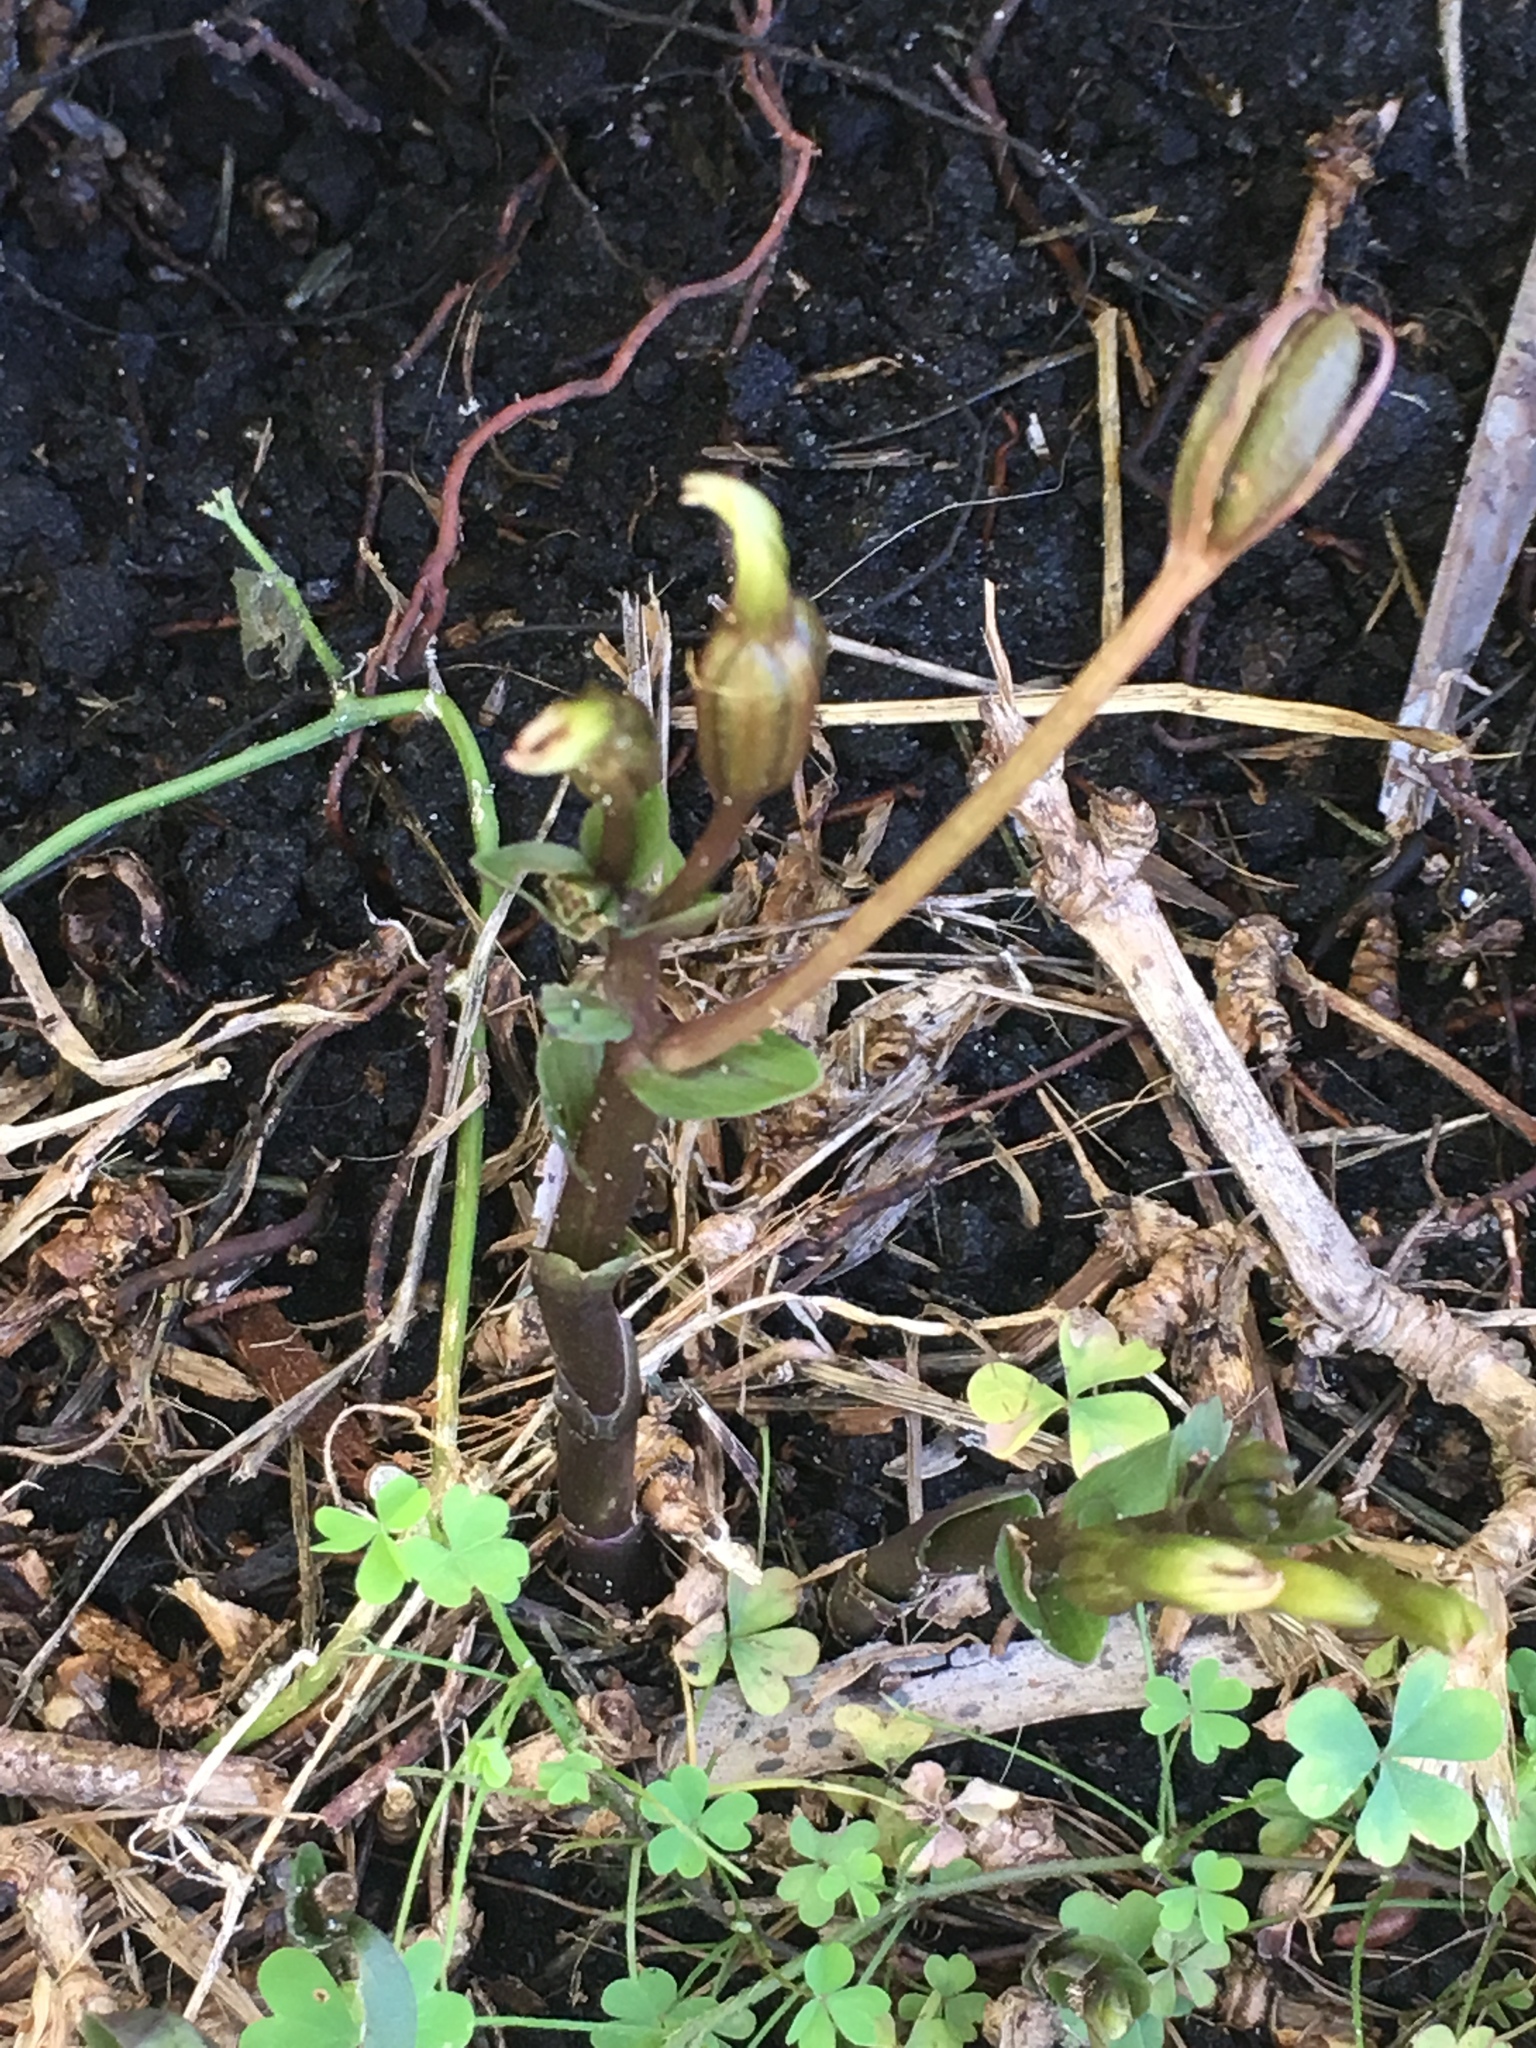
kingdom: Plantae
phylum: Tracheophyta
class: Liliopsida
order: Asparagales
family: Orchidaceae
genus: Triphora
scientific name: Triphora gentianoides
